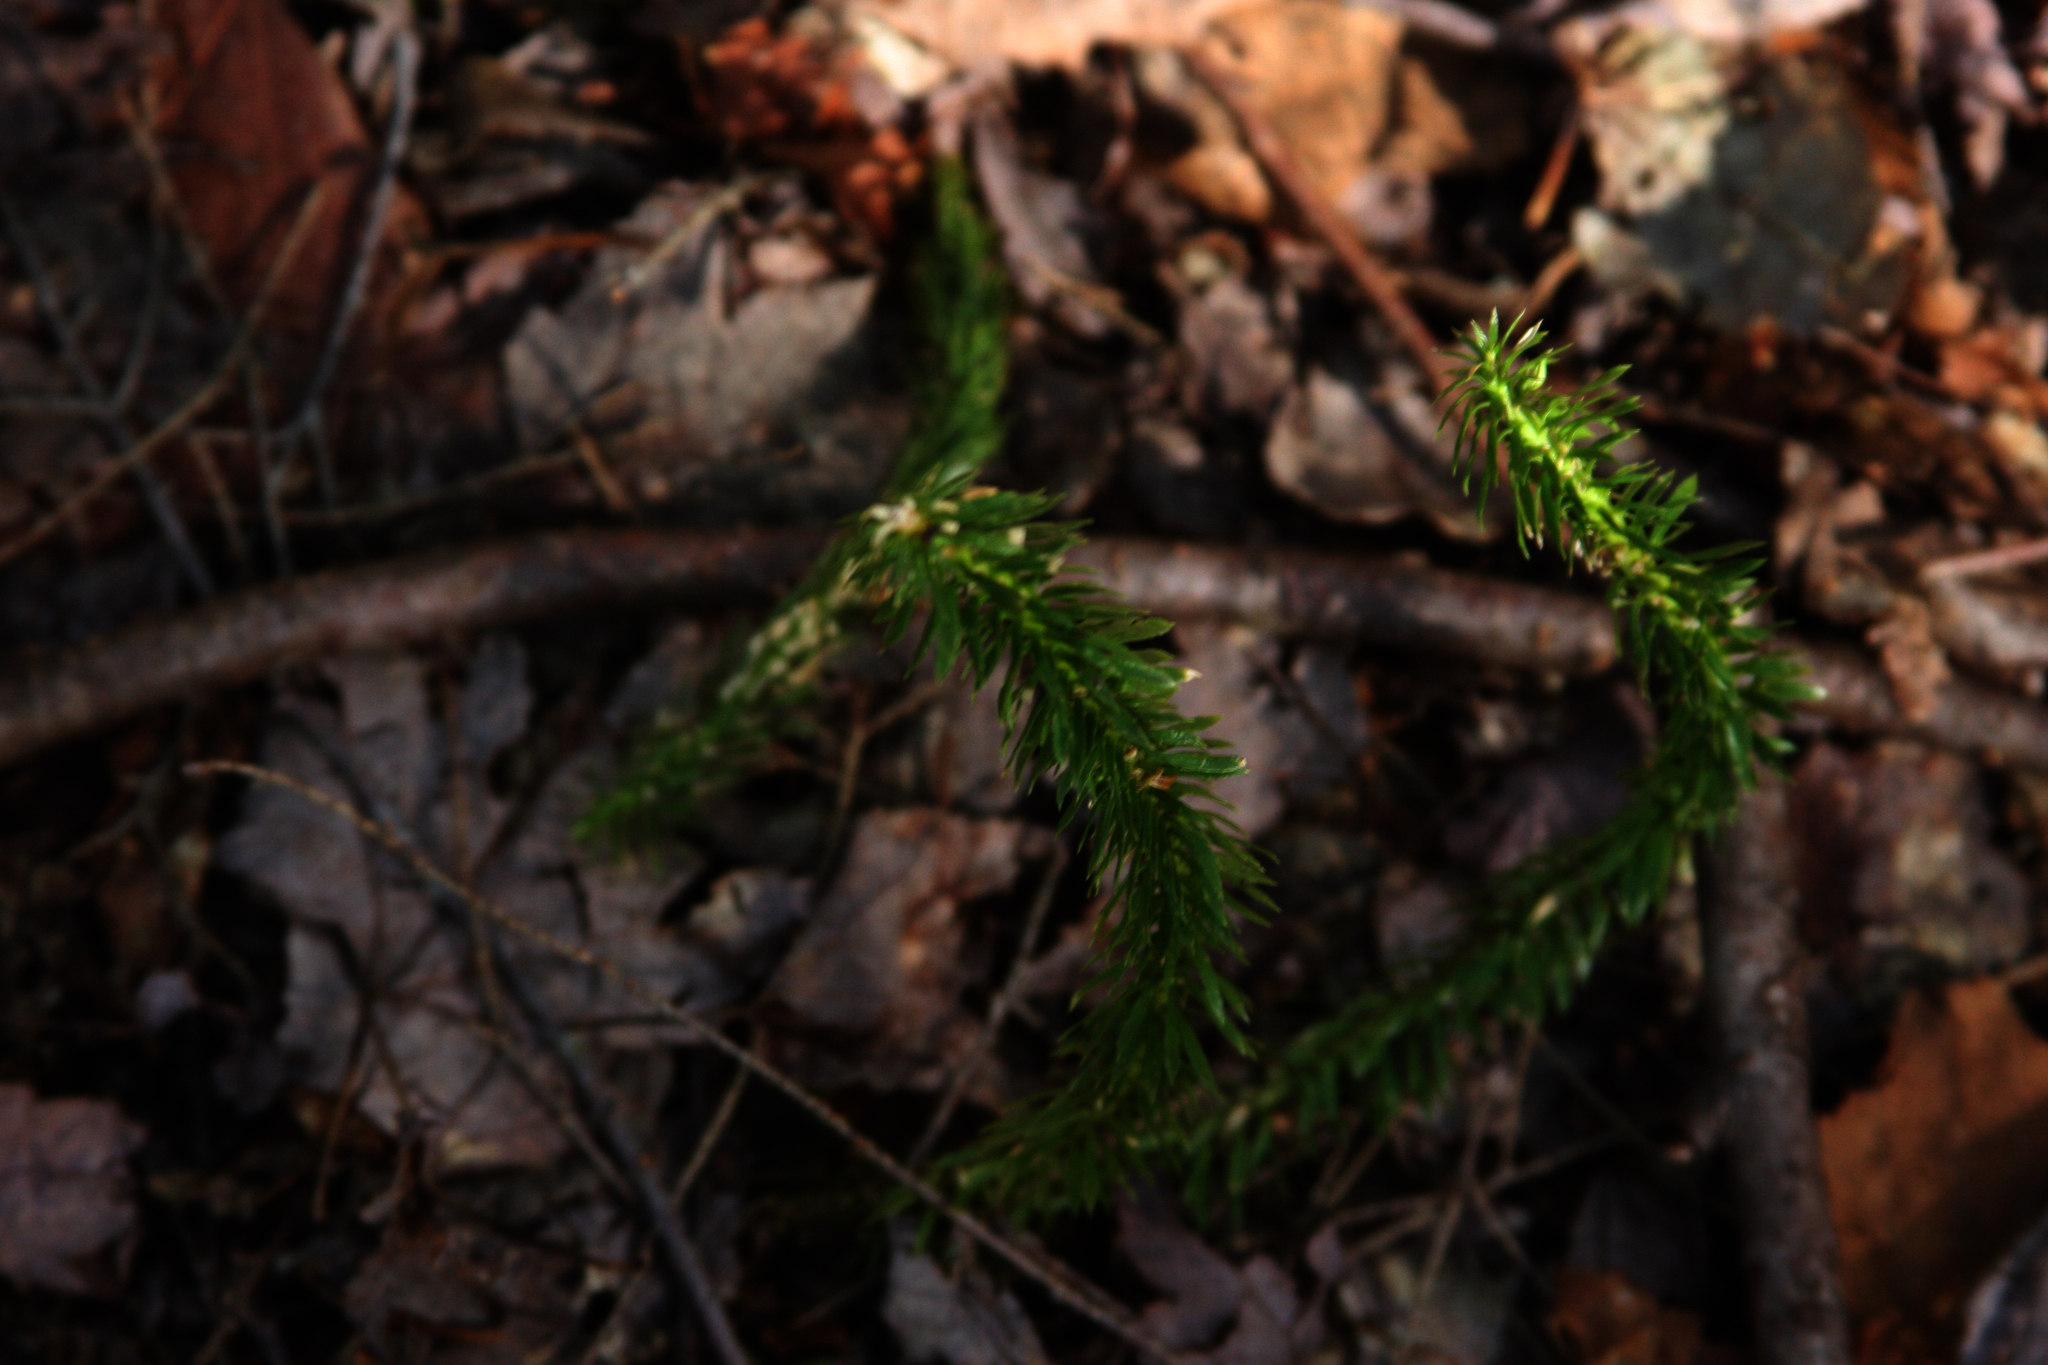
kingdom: Plantae
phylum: Tracheophyta
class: Lycopodiopsida
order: Lycopodiales
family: Lycopodiaceae
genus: Huperzia
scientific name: Huperzia lucidula
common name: Shining clubmoss
